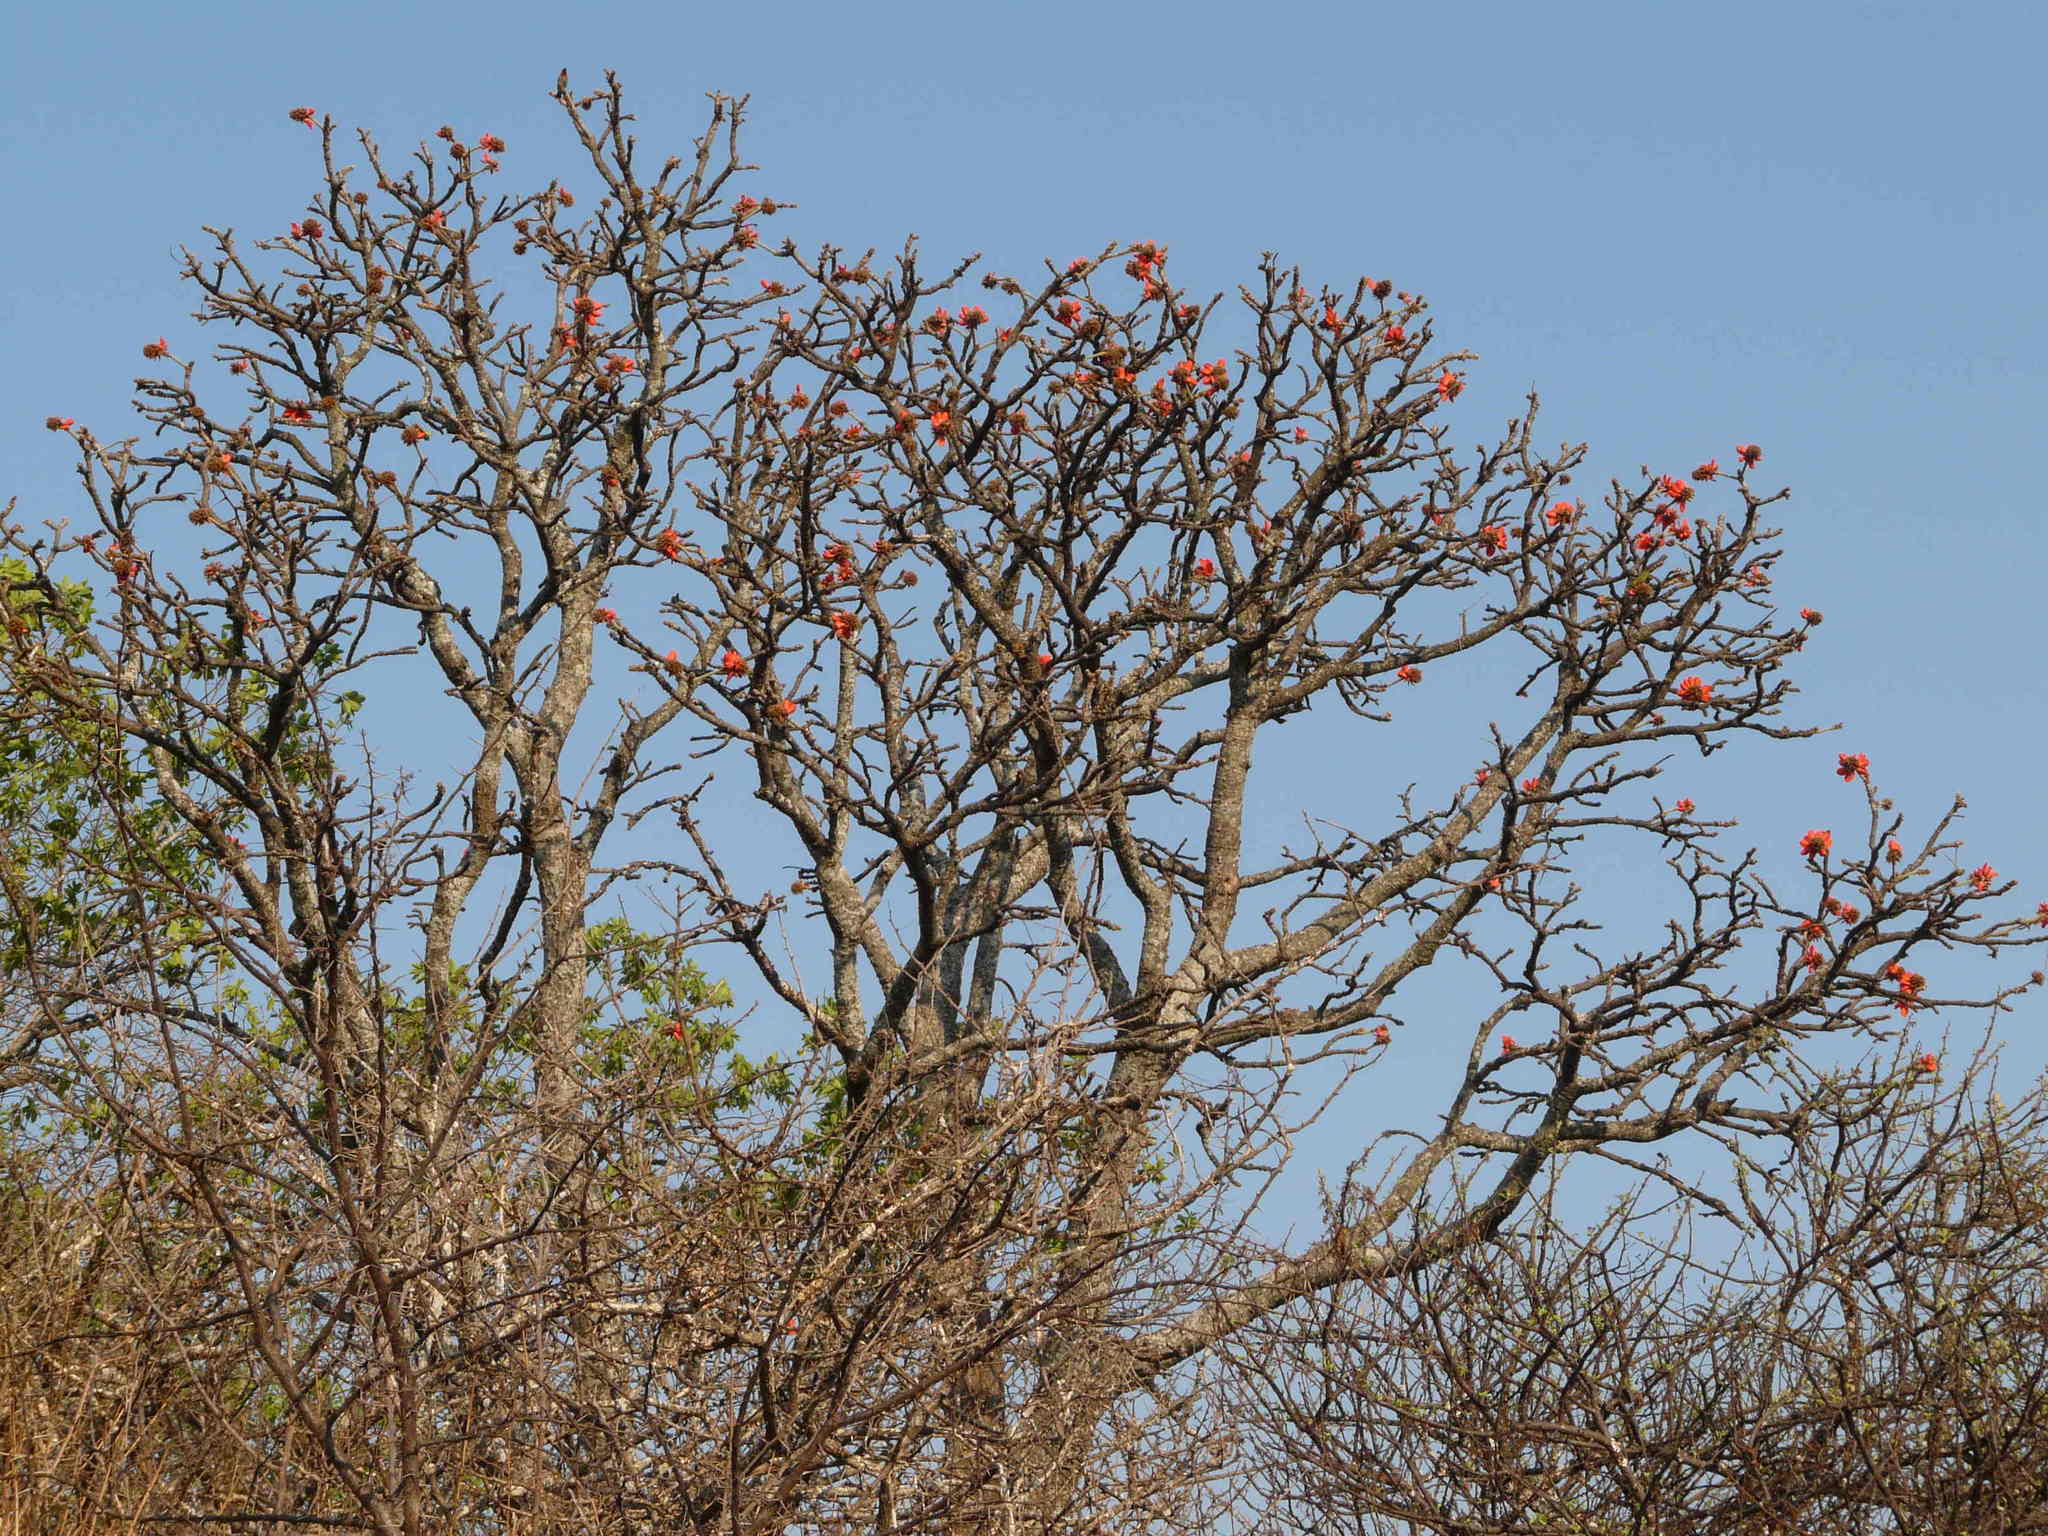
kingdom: Plantae
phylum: Tracheophyta
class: Magnoliopsida
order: Fabales
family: Fabaceae
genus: Erythrina
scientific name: Erythrina lysistemon
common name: Common coral tree
